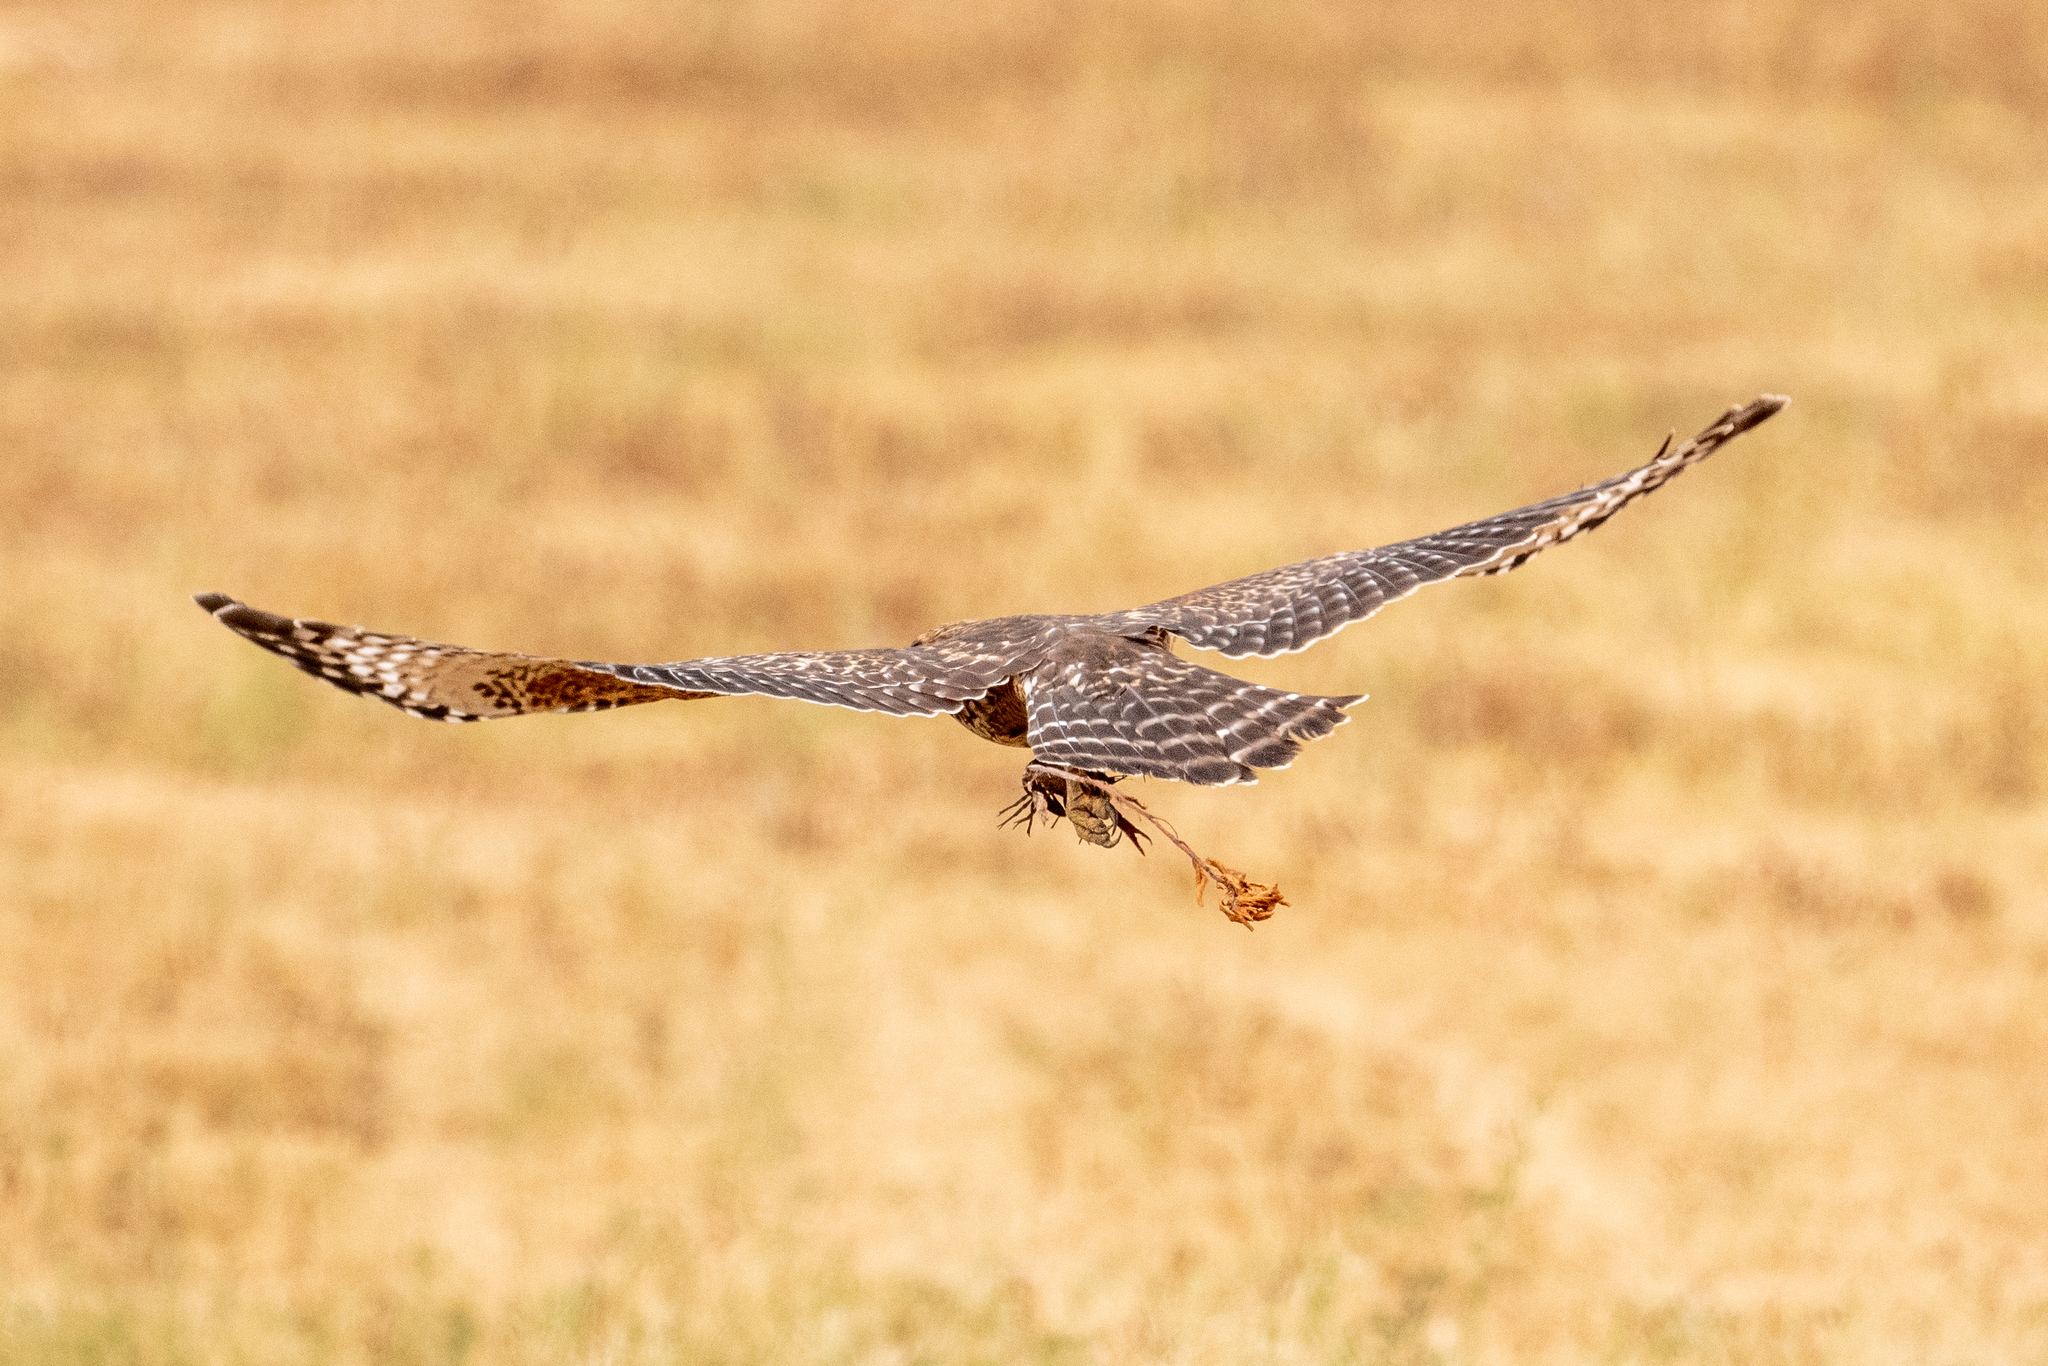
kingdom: Animalia
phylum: Chordata
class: Aves
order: Accipitriformes
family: Accipitridae
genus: Buteo
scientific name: Buteo lineatus
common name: Red-shouldered hawk
